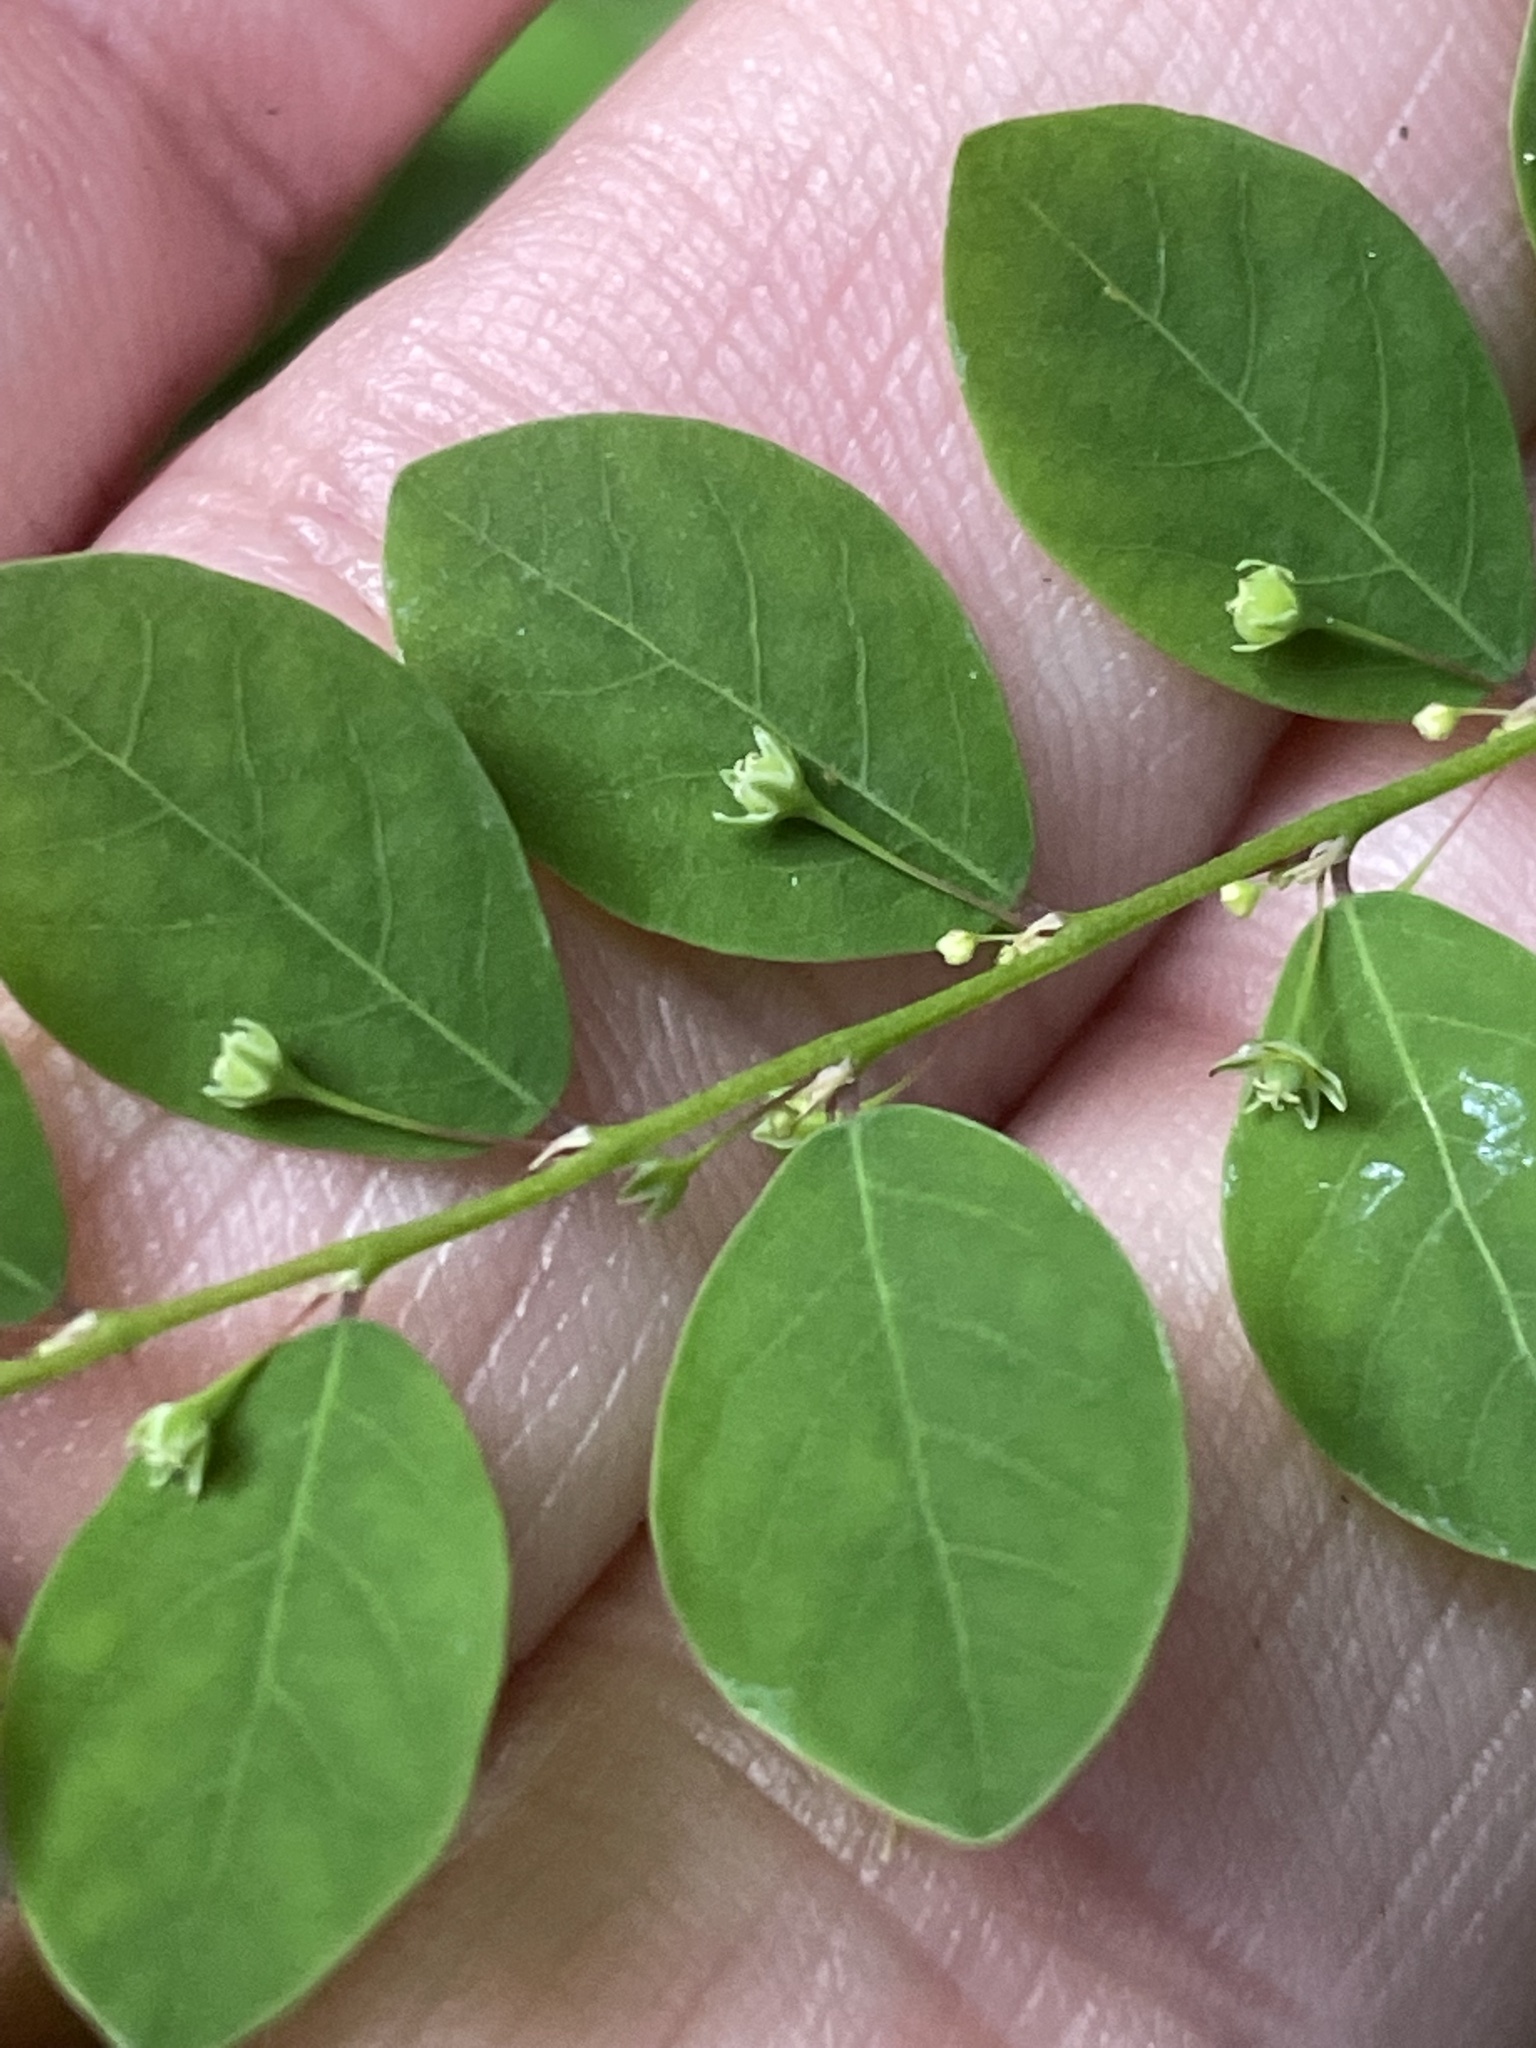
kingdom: Plantae
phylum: Tracheophyta
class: Magnoliopsida
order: Malpighiales
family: Phyllanthaceae
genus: Phyllanthus
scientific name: Phyllanthus tenellus
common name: Mascarene island leaf-flower
